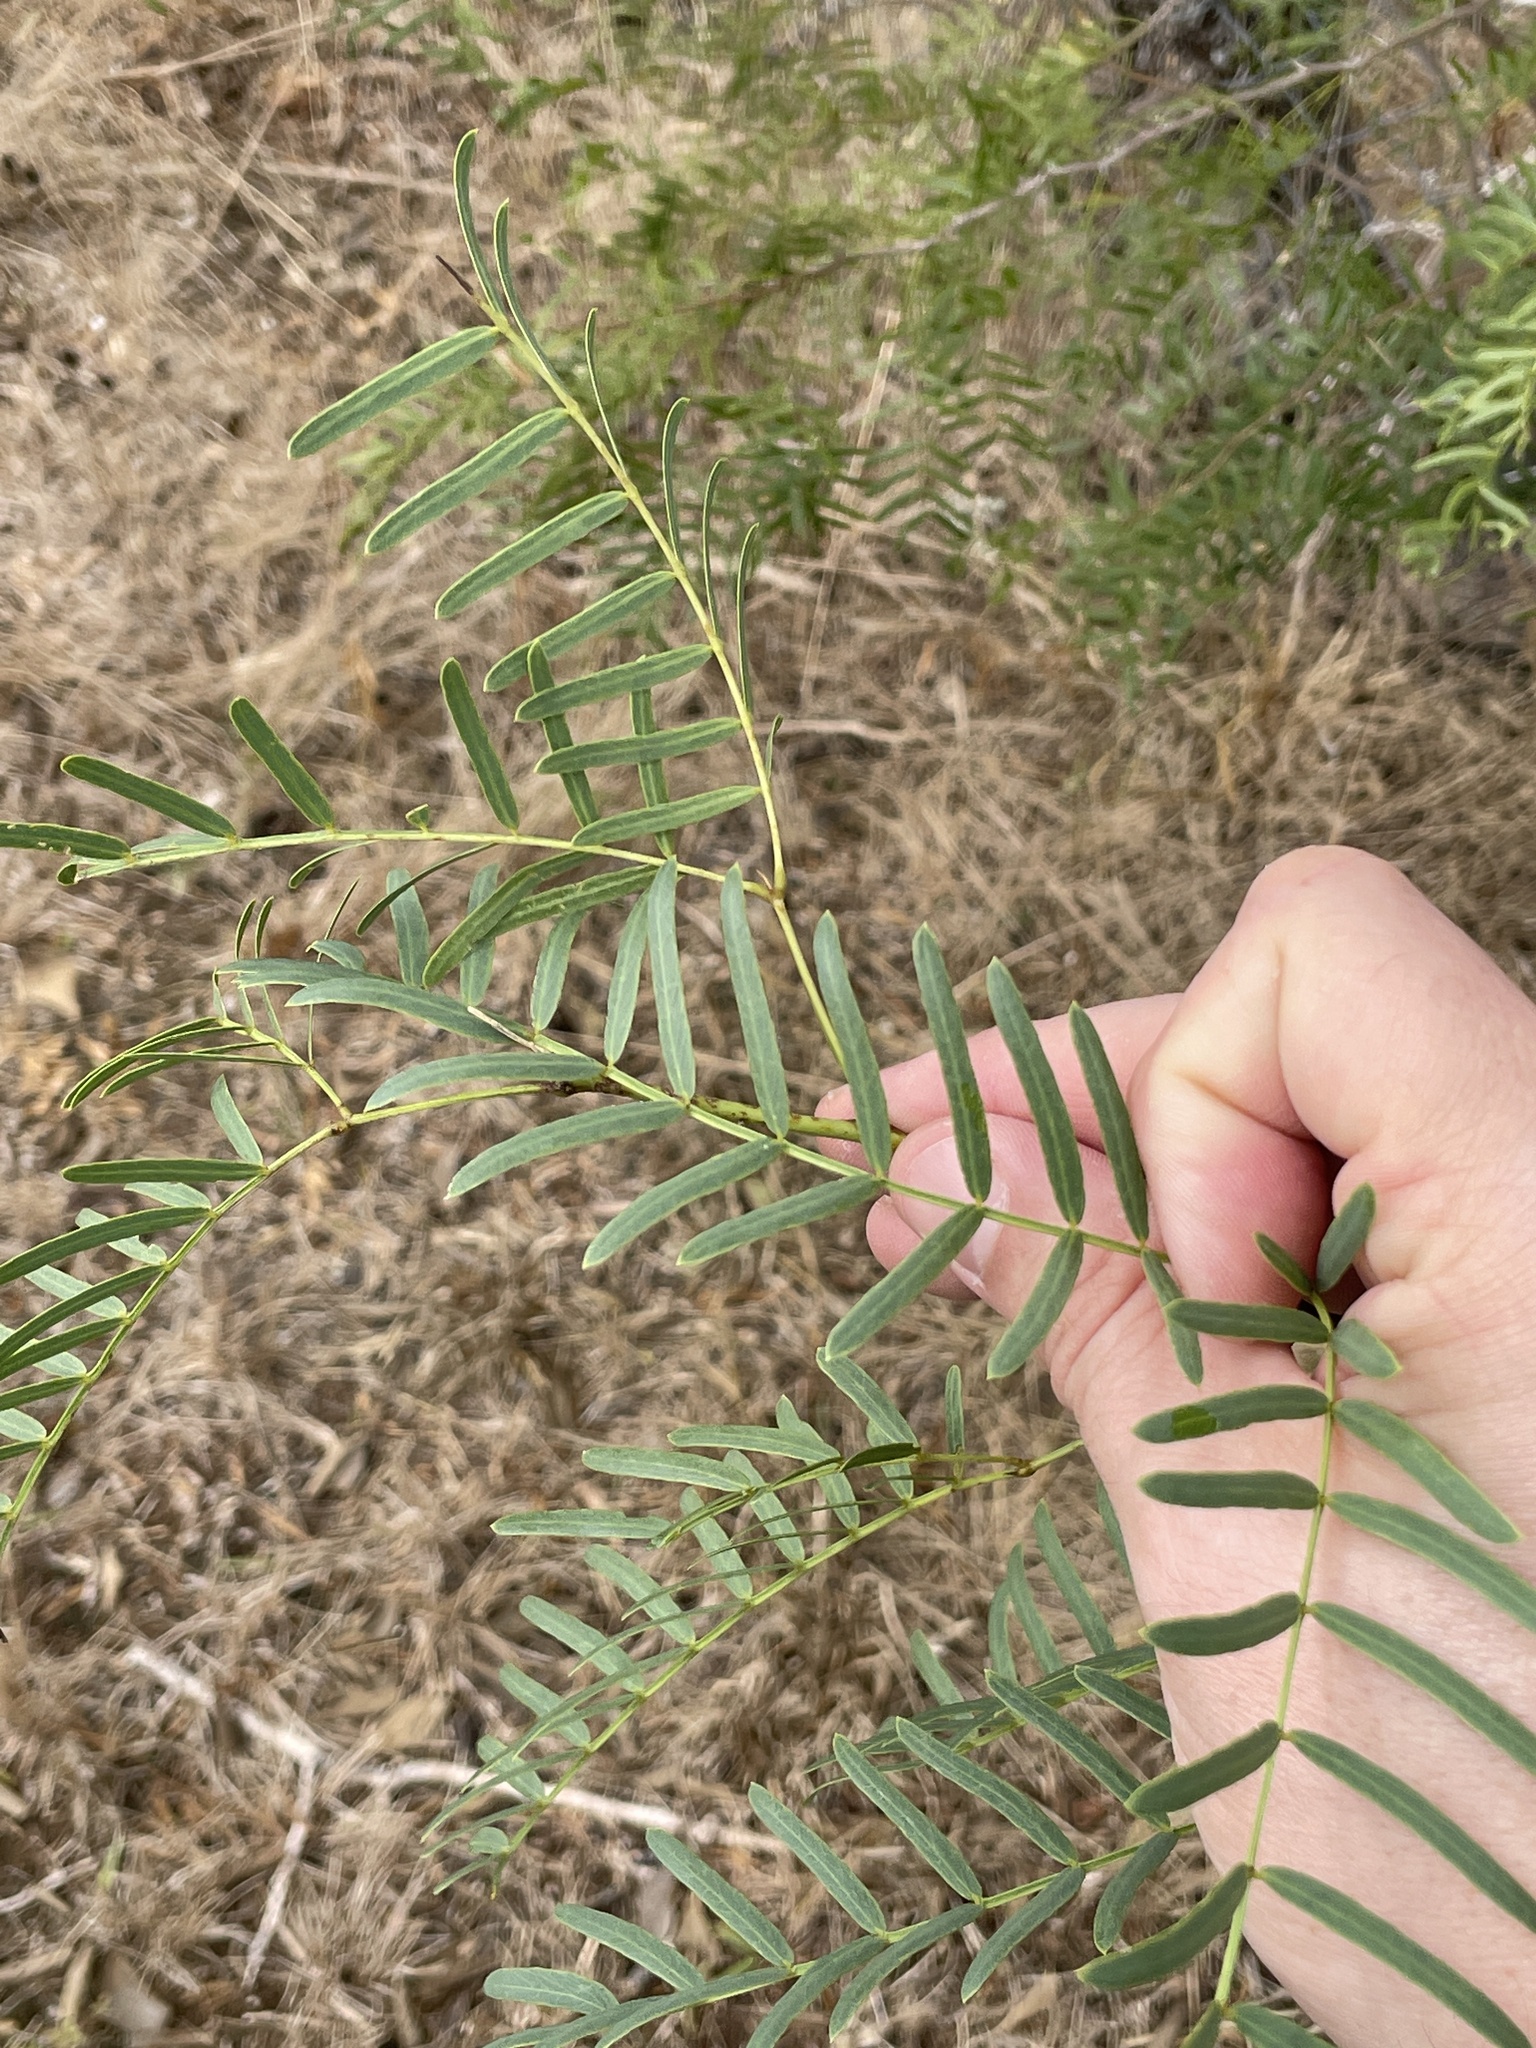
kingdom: Plantae
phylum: Tracheophyta
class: Magnoliopsida
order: Fabales
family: Fabaceae
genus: Prosopis
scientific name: Prosopis glandulosa
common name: Honey mesquite
